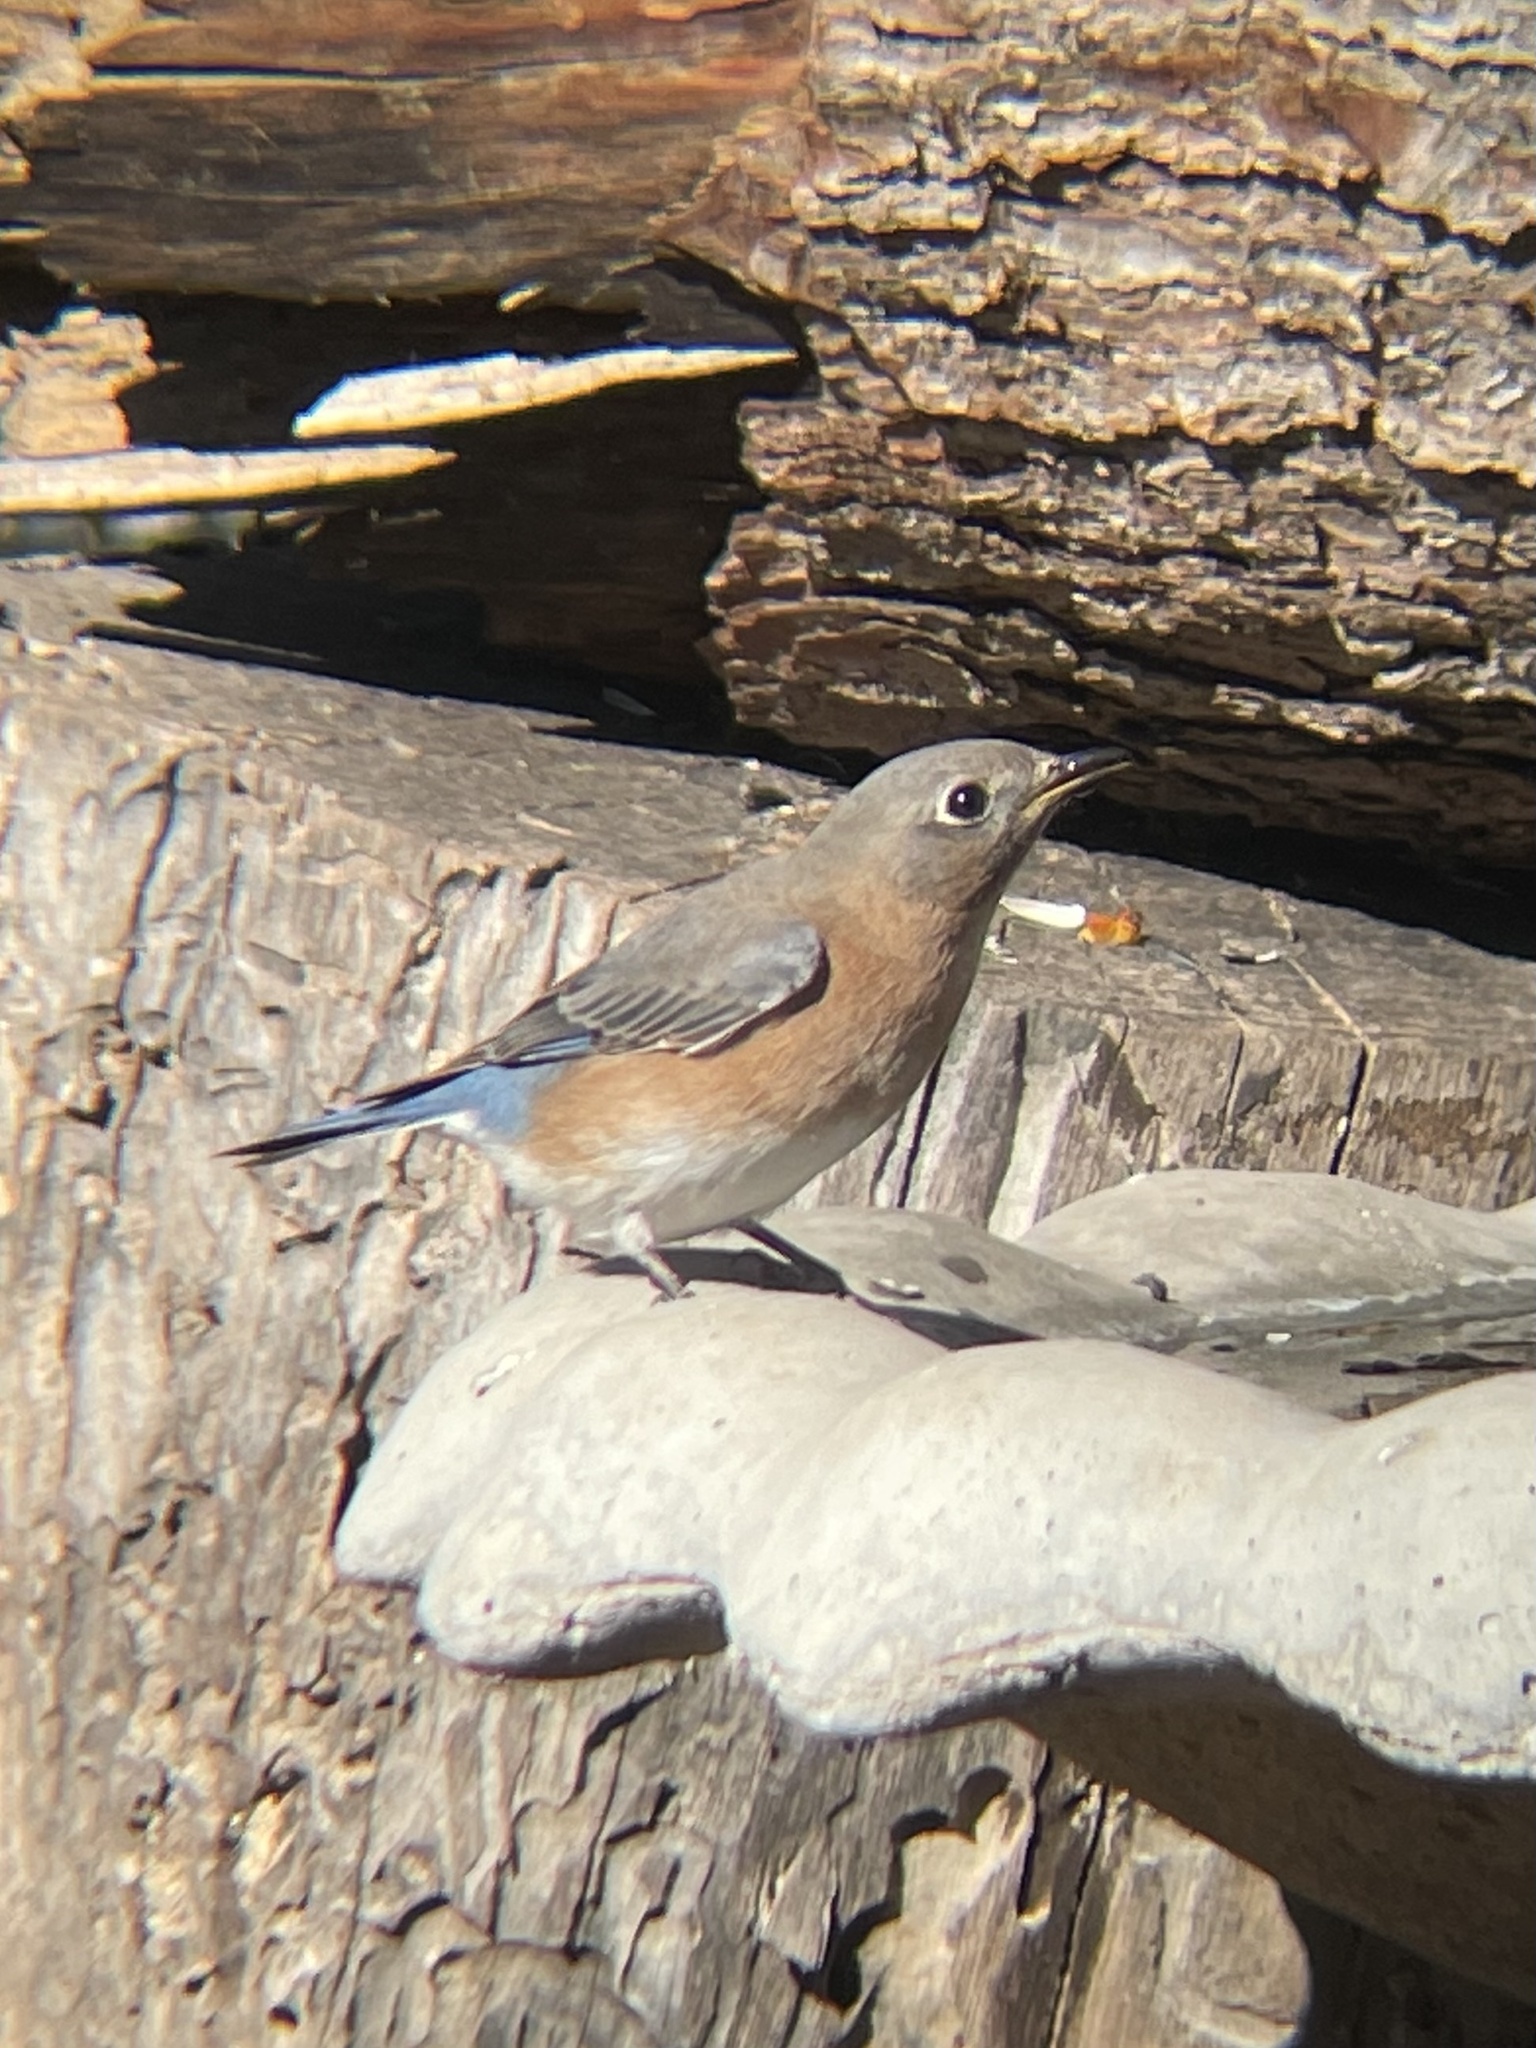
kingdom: Animalia
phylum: Chordata
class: Aves
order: Passeriformes
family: Turdidae
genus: Sialia
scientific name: Sialia sialis
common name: Eastern bluebird
